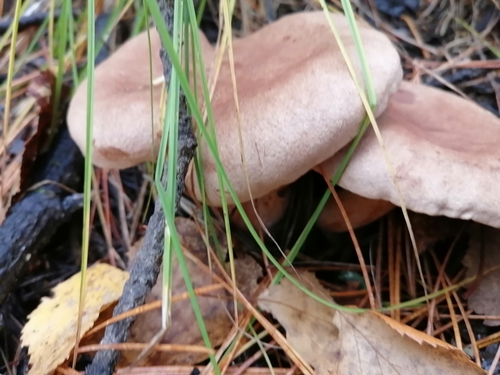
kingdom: Fungi
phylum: Basidiomycota
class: Agaricomycetes
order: Russulales
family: Russulaceae
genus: Lactarius
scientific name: Lactarius helvus
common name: Fenugreek milkcap
